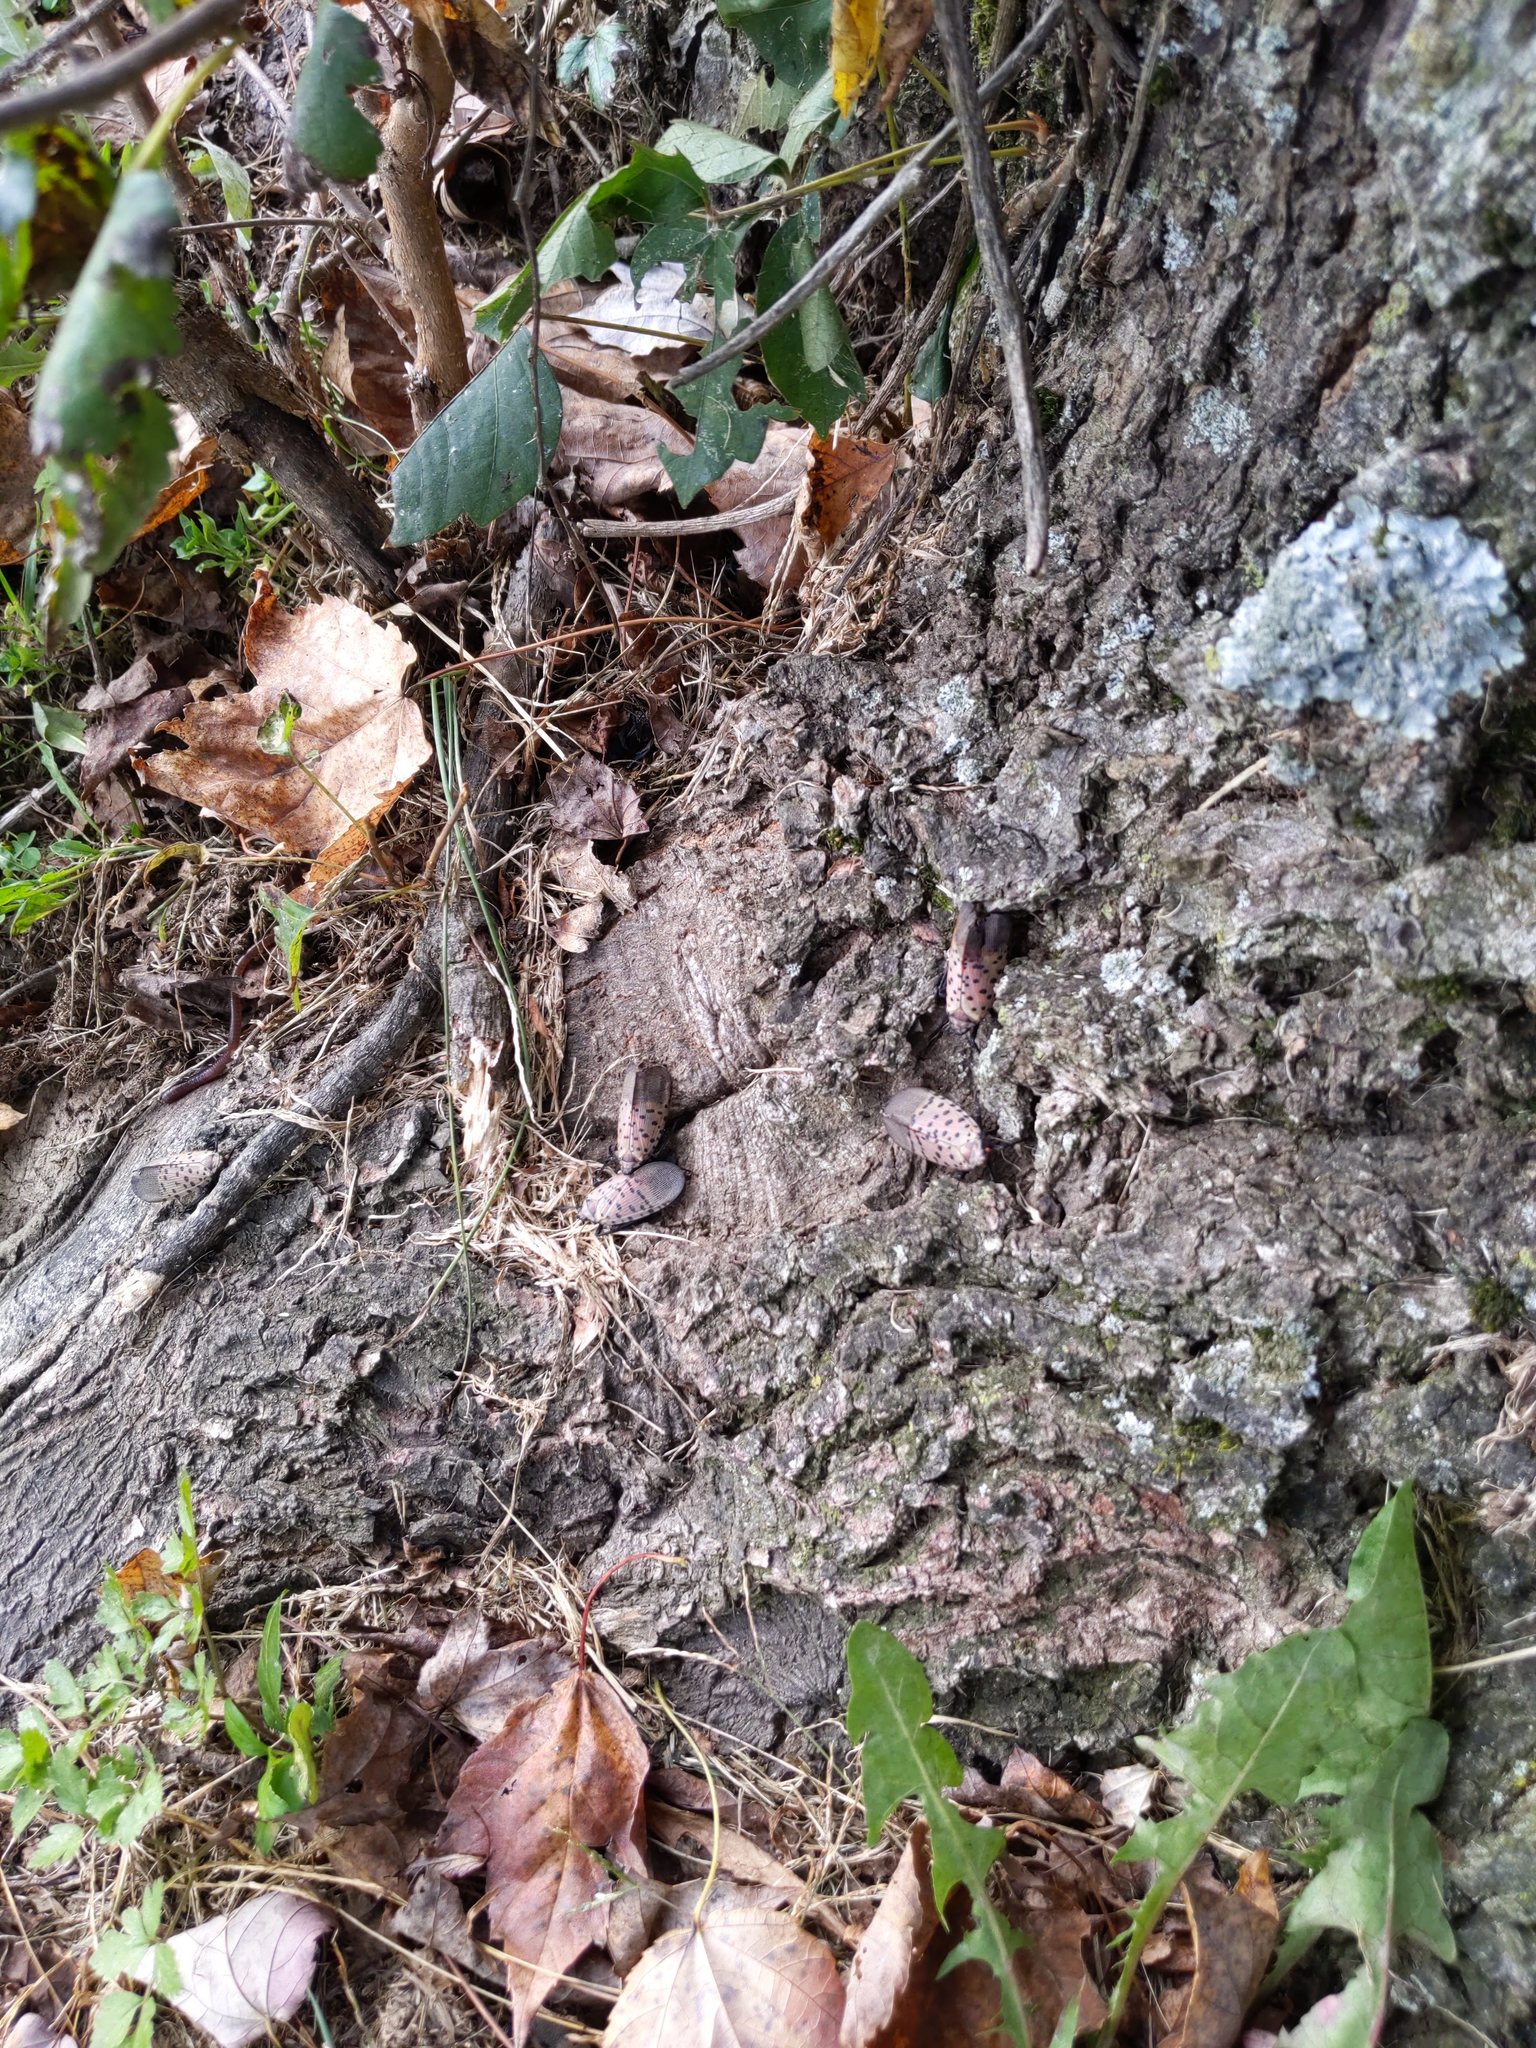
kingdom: Animalia
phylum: Arthropoda
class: Insecta
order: Hemiptera
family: Fulgoridae
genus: Lycorma
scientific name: Lycorma delicatula
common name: Spotted lanternfly
